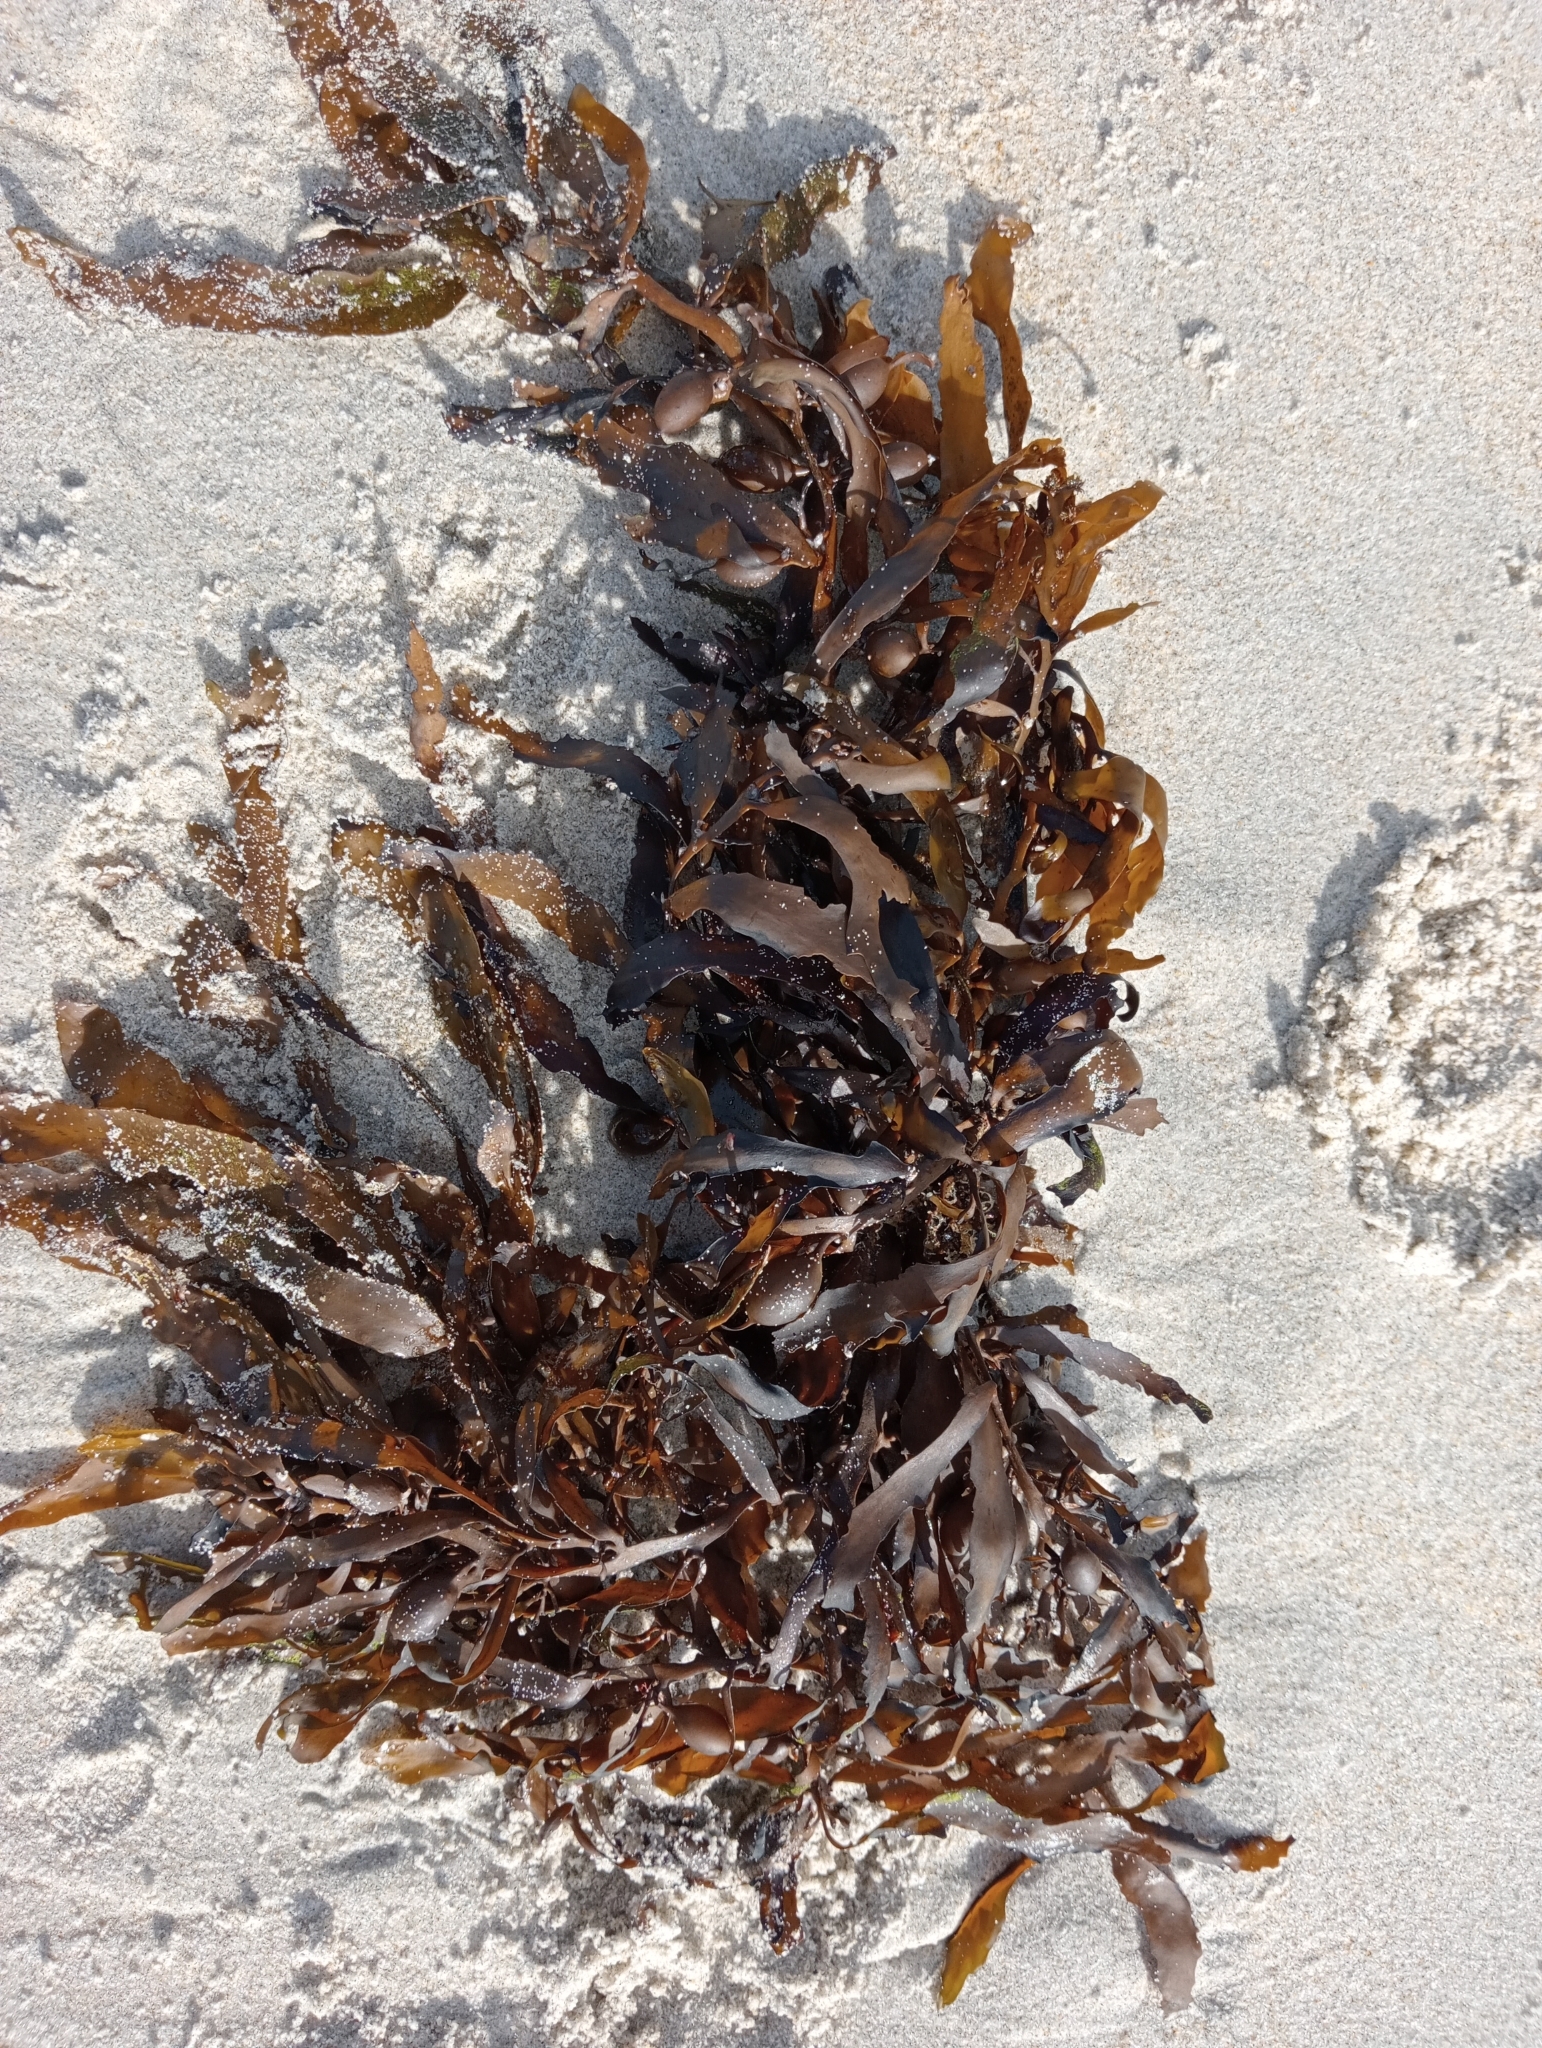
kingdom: Chromista
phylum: Ochrophyta
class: Phaeophyceae
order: Fucales
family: Sargassaceae
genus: Carpophyllum
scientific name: Carpophyllum flexuosum
